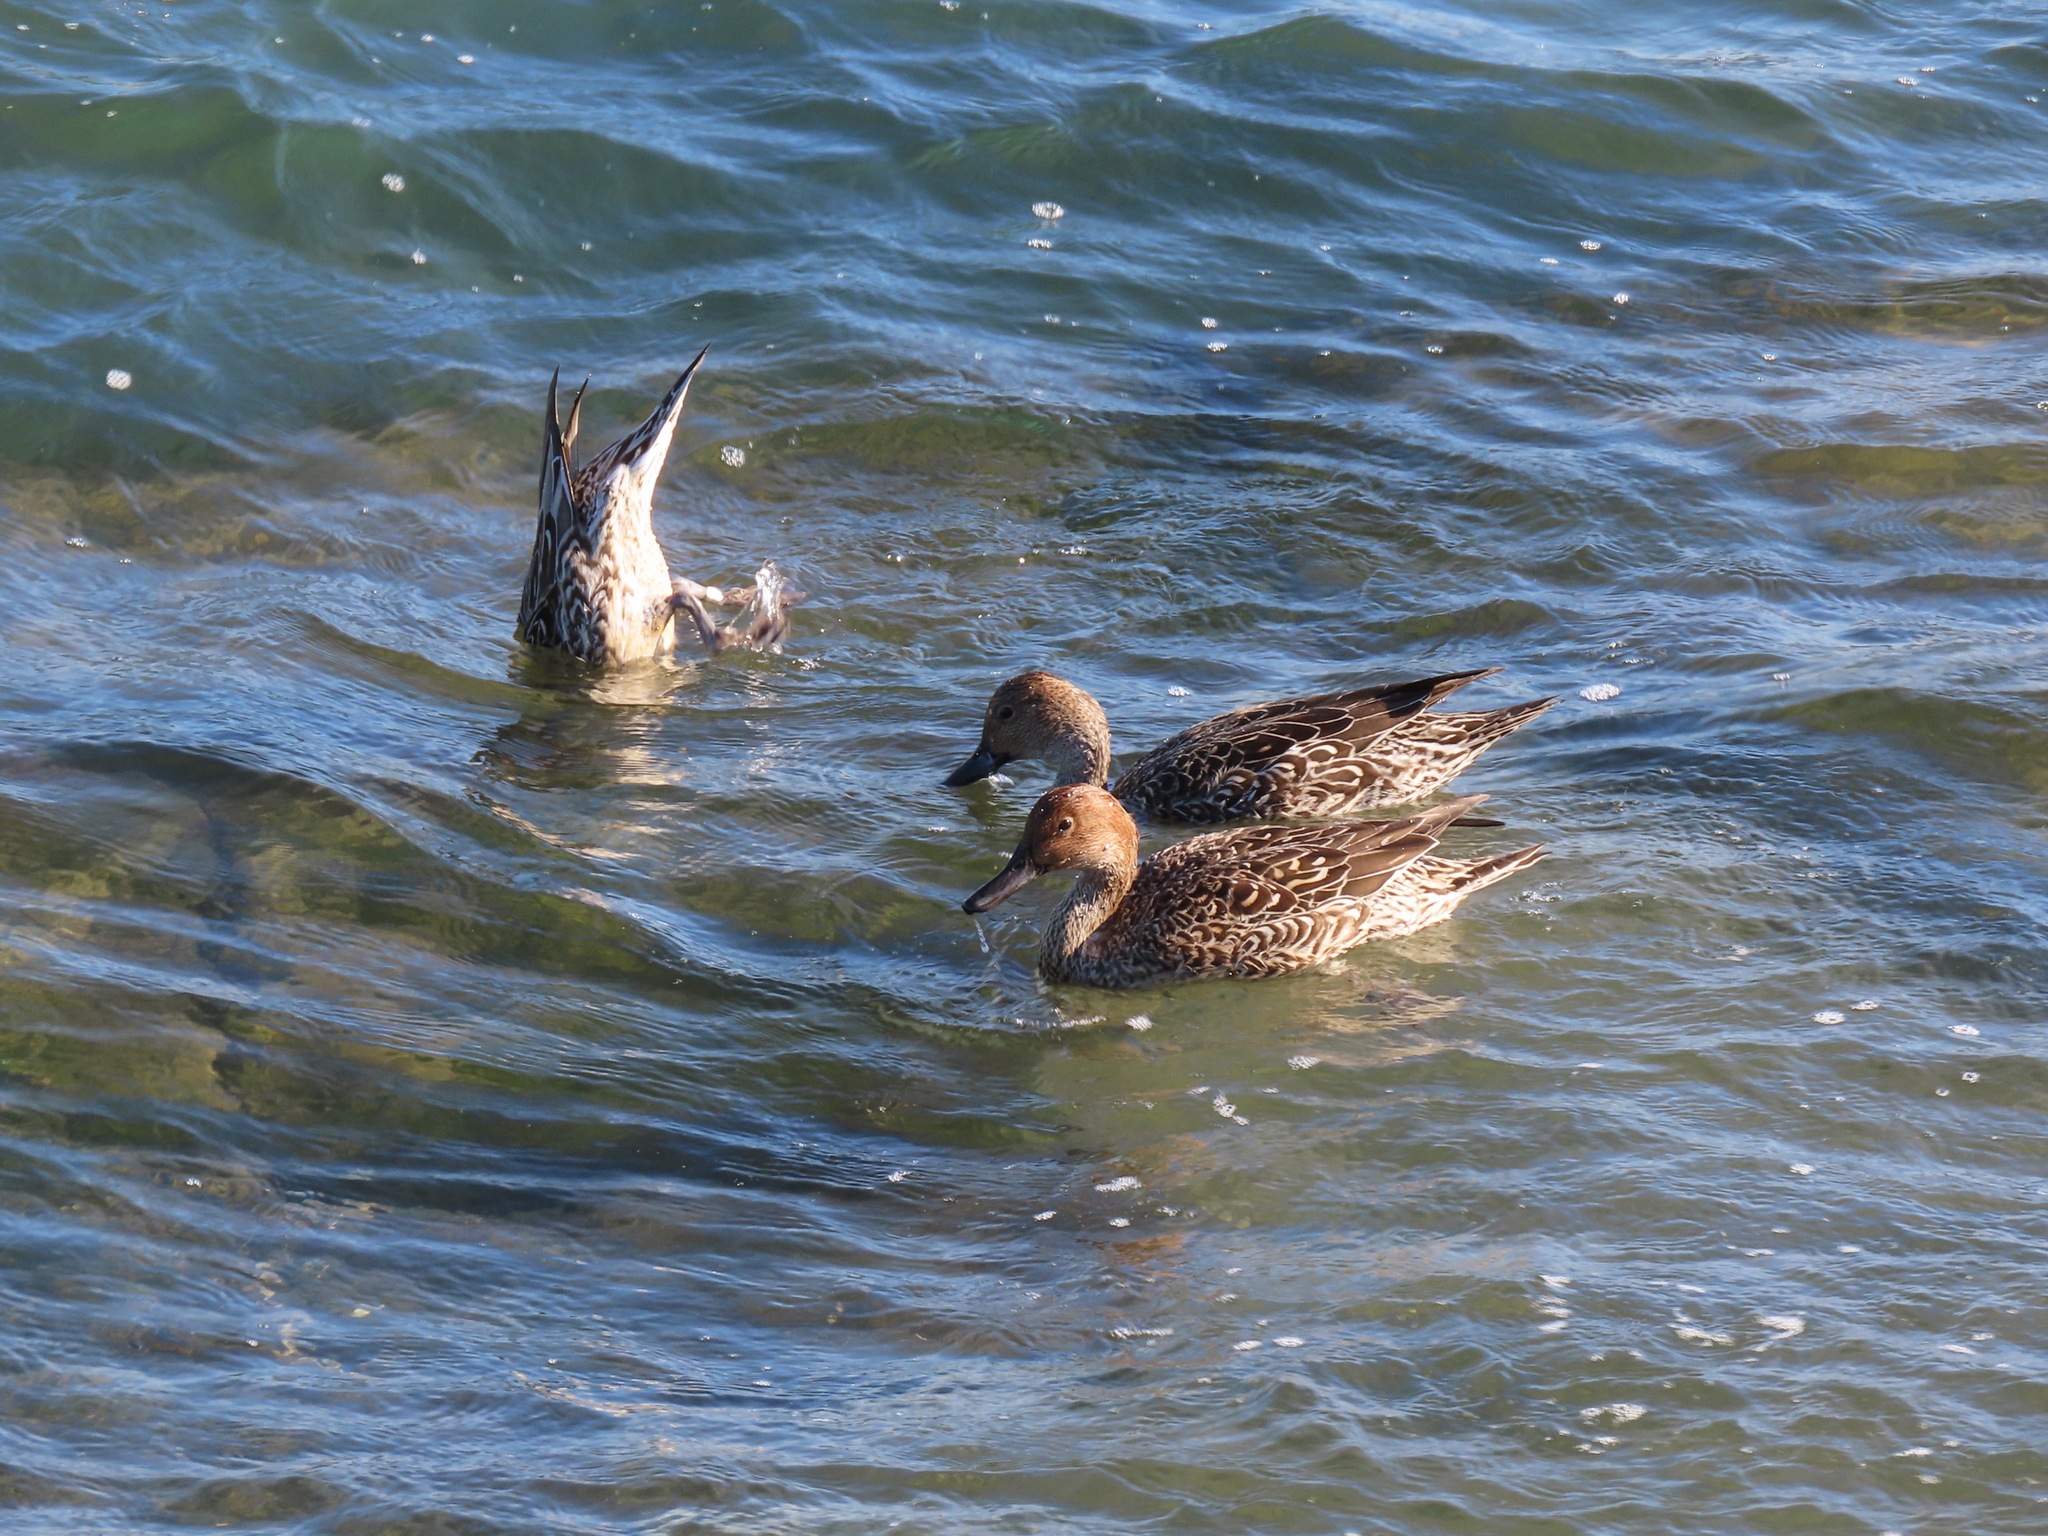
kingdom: Animalia
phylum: Chordata
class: Aves
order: Anseriformes
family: Anatidae
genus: Anas
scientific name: Anas acuta
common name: Northern pintail
